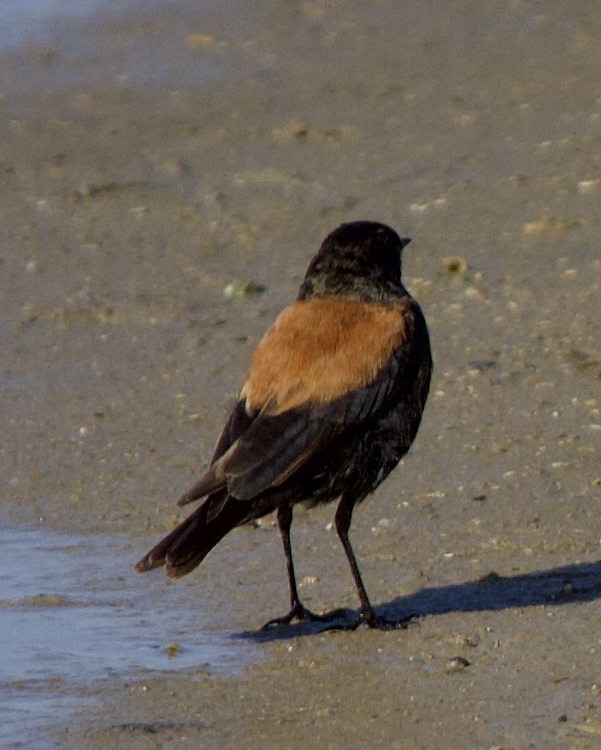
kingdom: Animalia
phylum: Chordata
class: Aves
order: Passeriformes
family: Tyrannidae
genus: Lessonia
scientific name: Lessonia rufa
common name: Austral negrito
